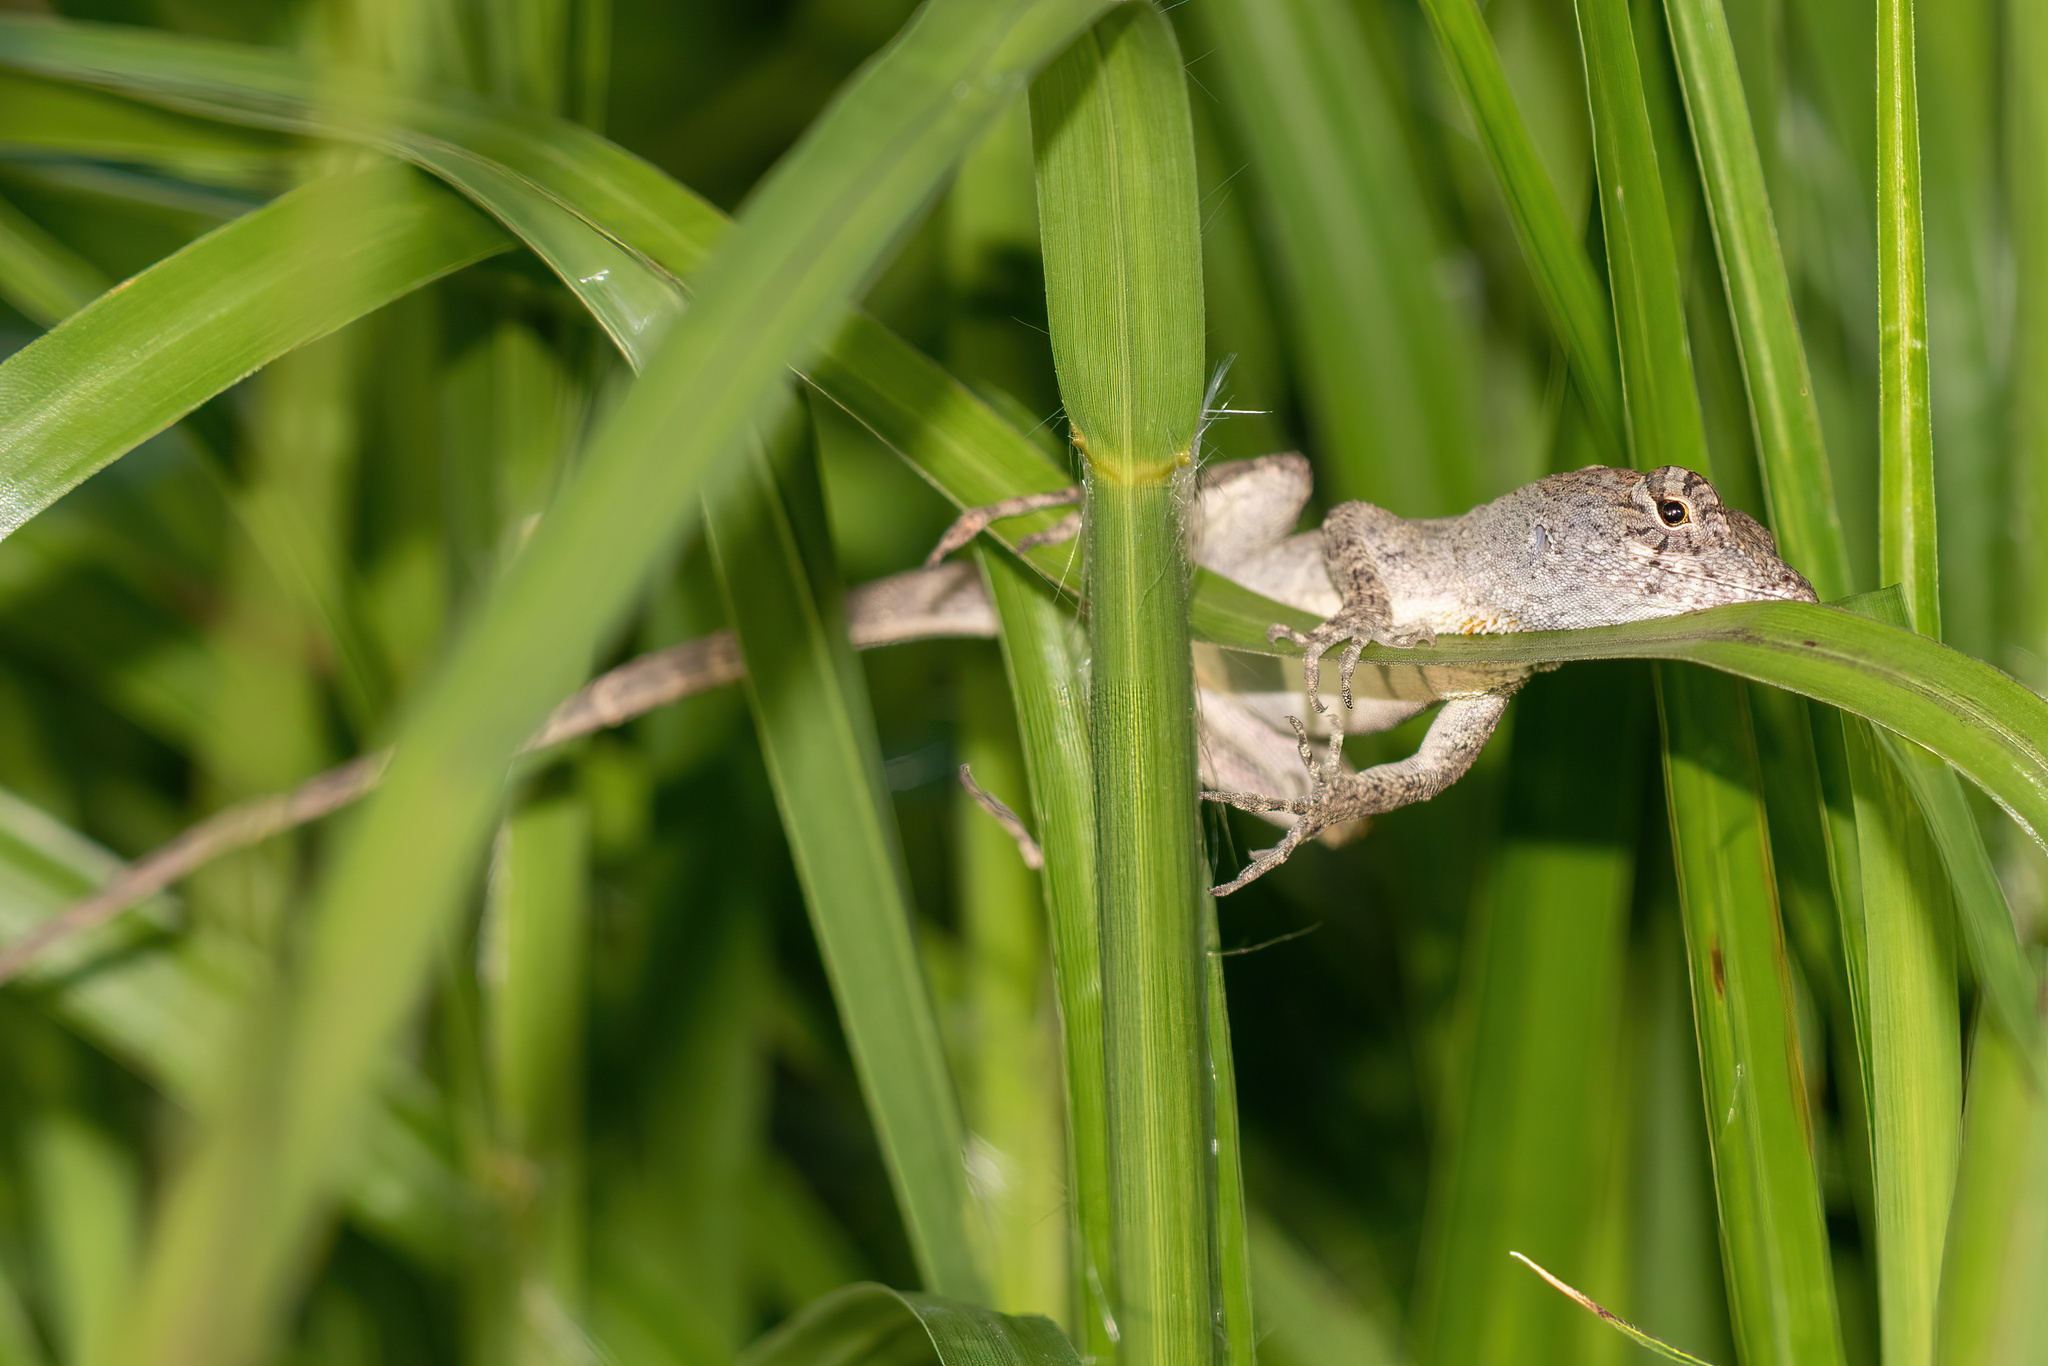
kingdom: Animalia
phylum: Chordata
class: Squamata
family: Dactyloidae
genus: Anolis
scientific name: Anolis sagrei
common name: Brown anole
